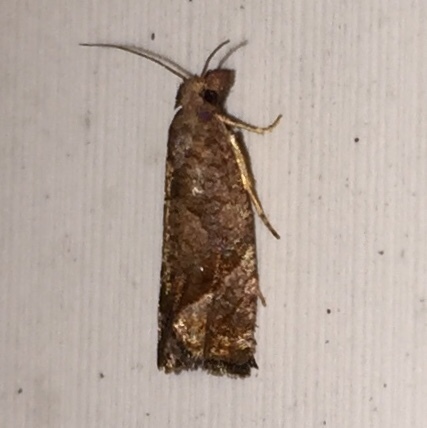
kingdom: Animalia
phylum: Arthropoda
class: Insecta
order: Lepidoptera
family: Tortricidae
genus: Pelochrista
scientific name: Pelochrista derelicta
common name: Derelict pelochrista moth
